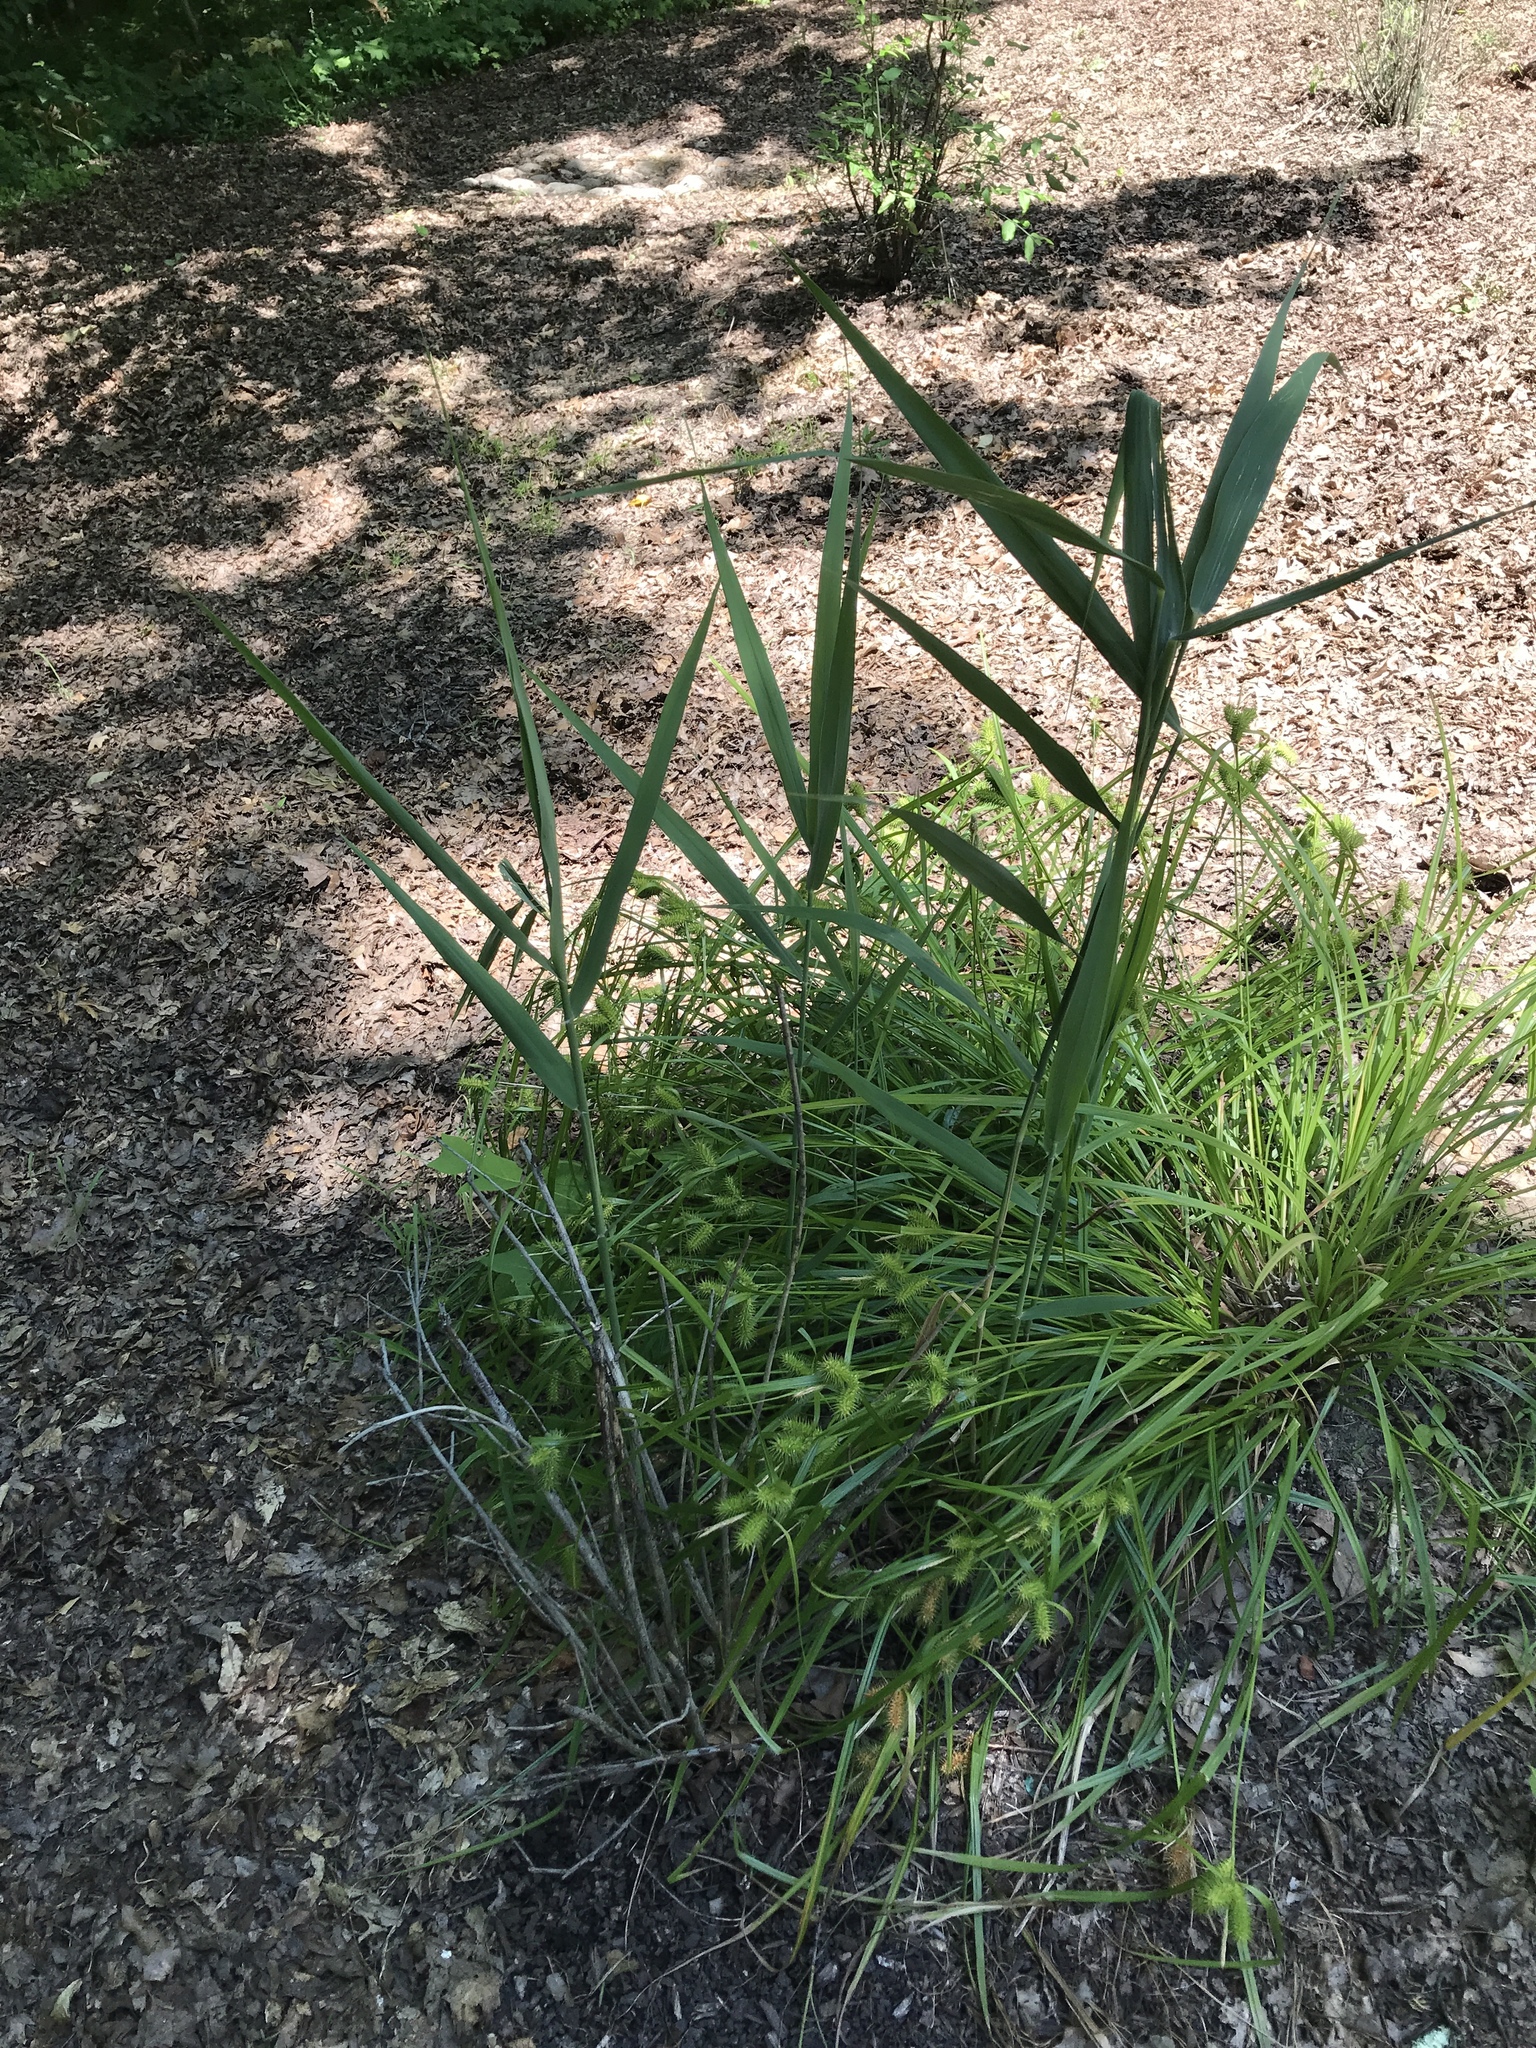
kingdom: Plantae
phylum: Tracheophyta
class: Liliopsida
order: Poales
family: Poaceae
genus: Phragmites
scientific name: Phragmites australis
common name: Common reed
